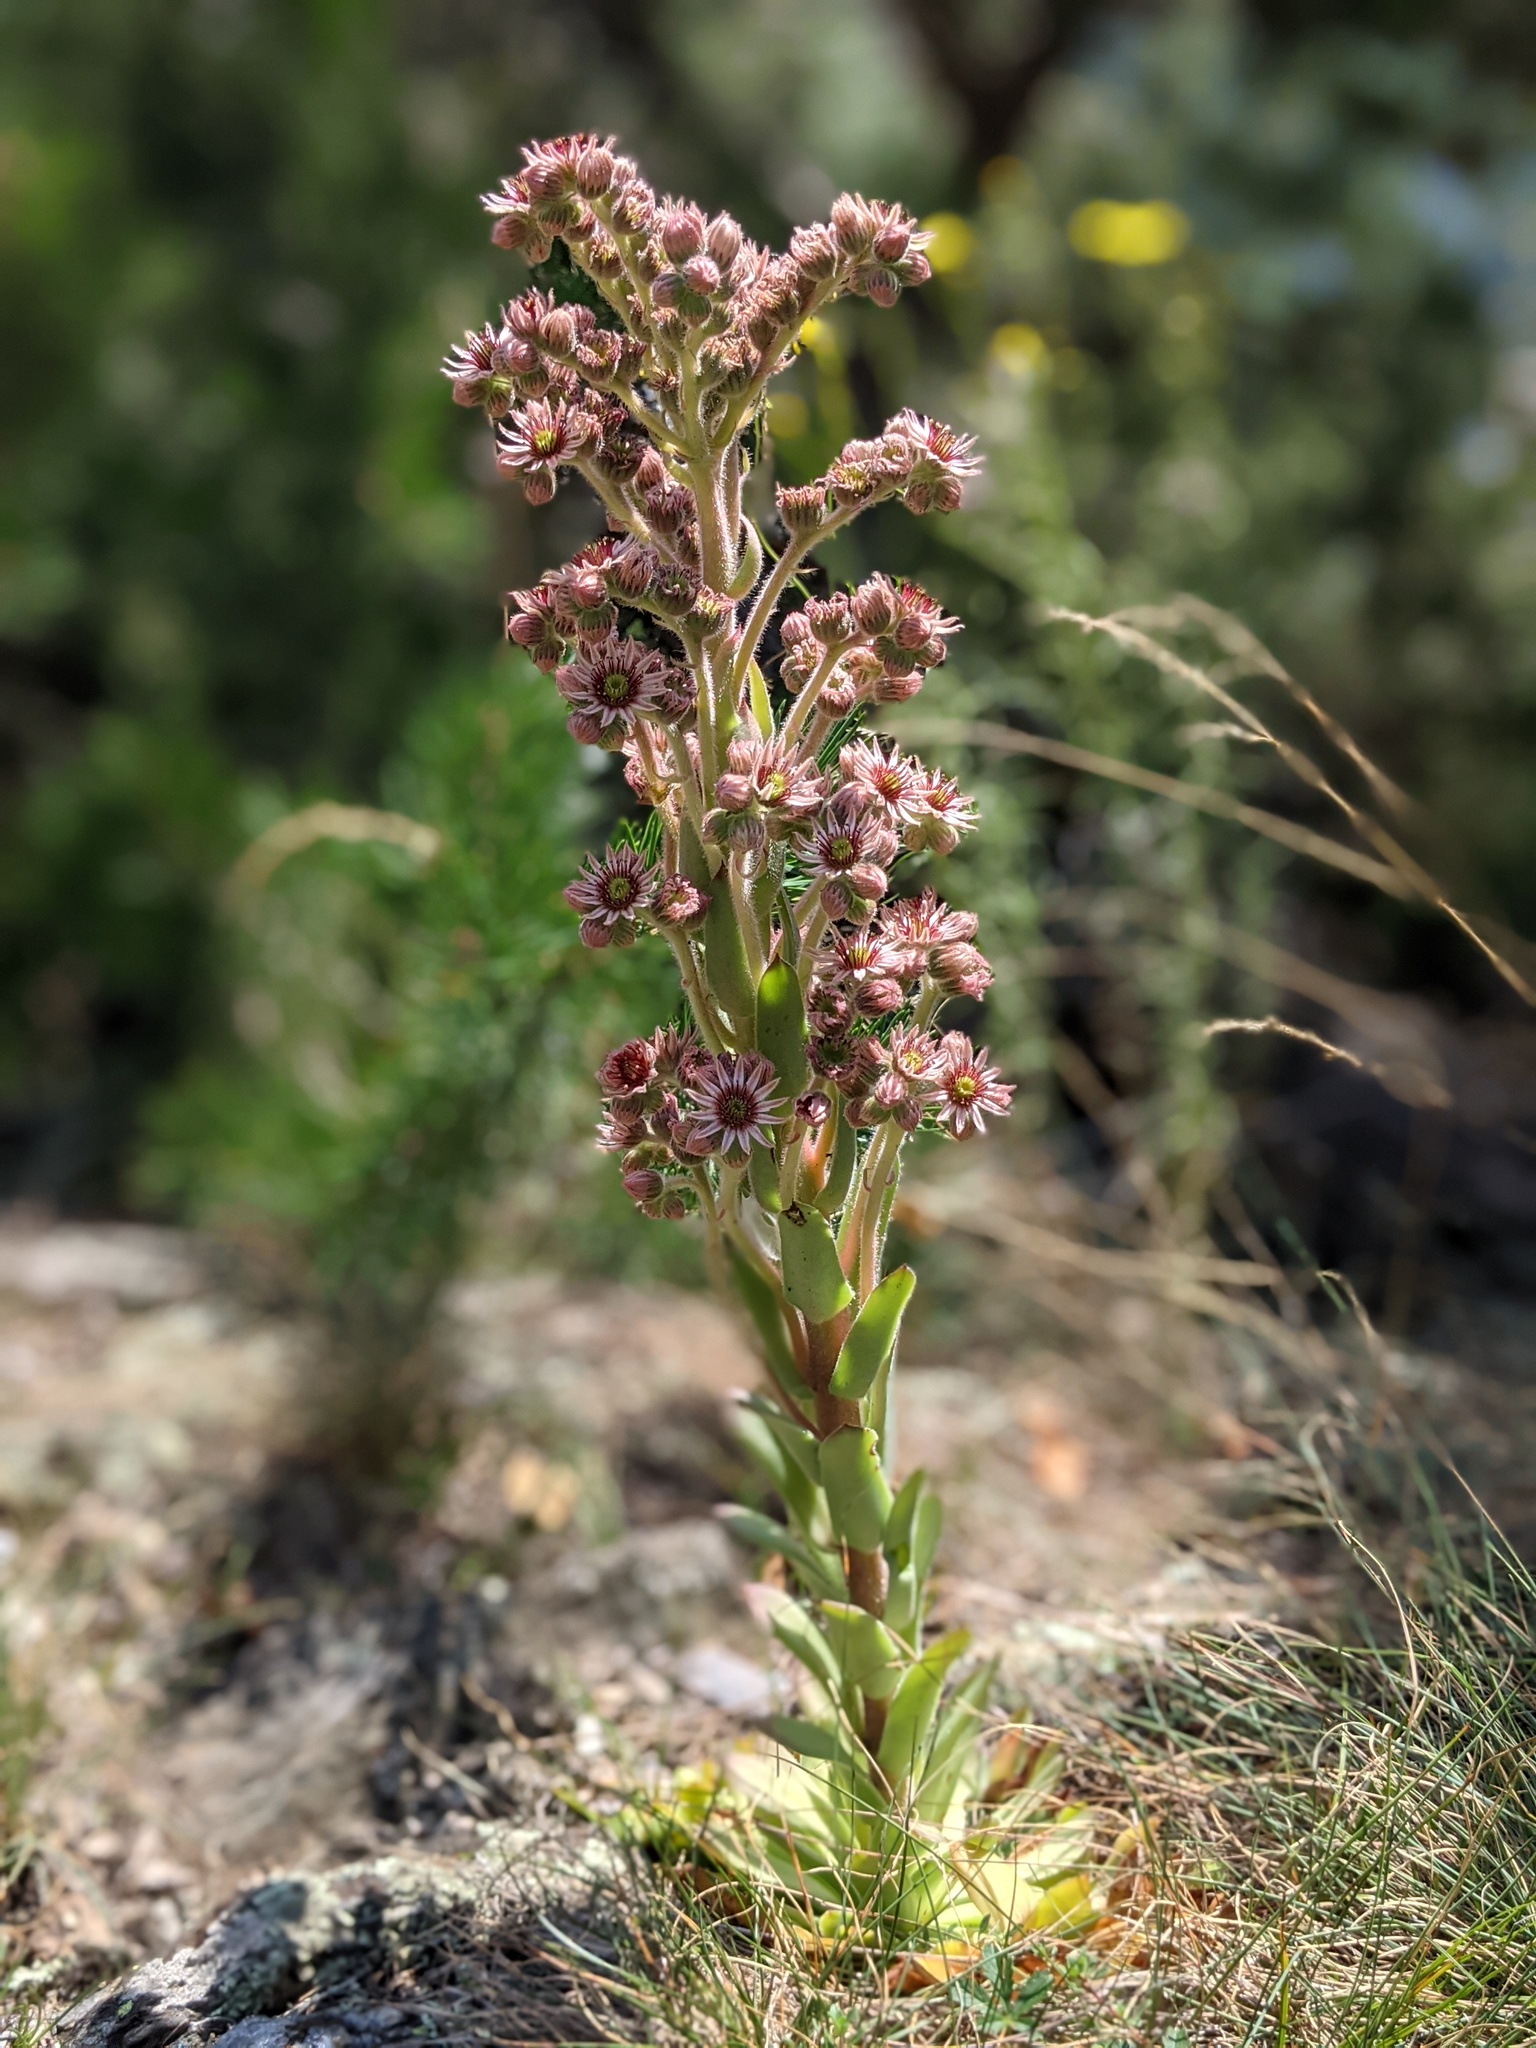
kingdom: Plantae
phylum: Tracheophyta
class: Magnoliopsida
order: Saxifragales
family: Crassulaceae
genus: Sempervivum
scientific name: Sempervivum tectorum
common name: House-leek
